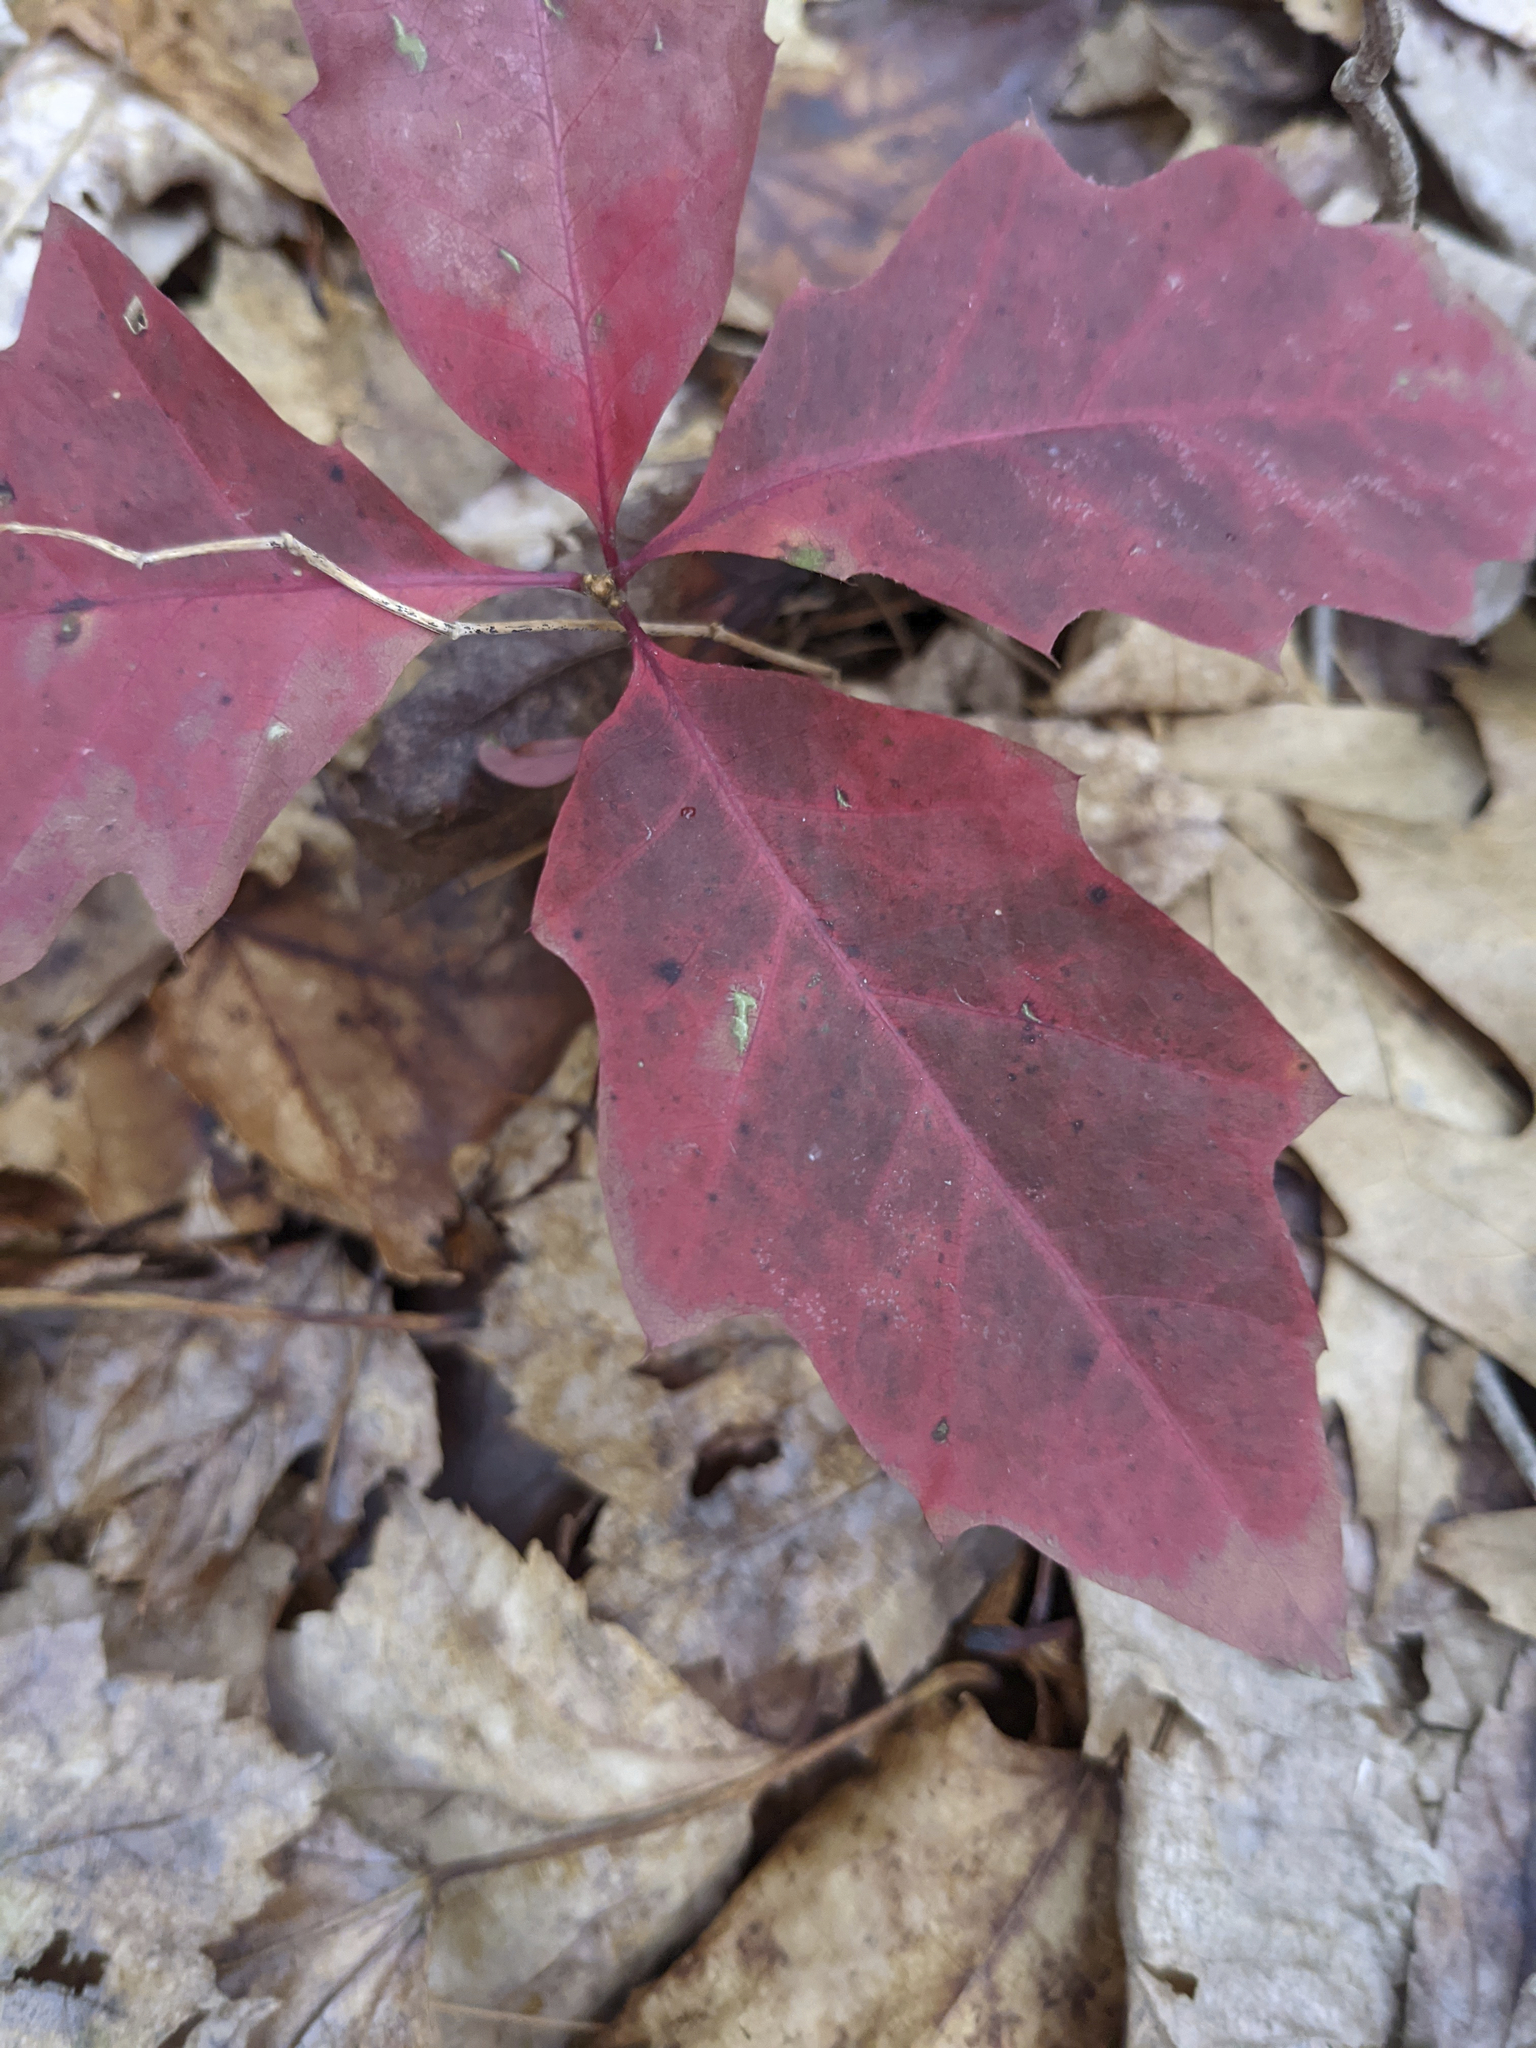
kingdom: Plantae
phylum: Tracheophyta
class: Magnoliopsida
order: Fagales
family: Fagaceae
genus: Quercus
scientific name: Quercus rubra
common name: Red oak
